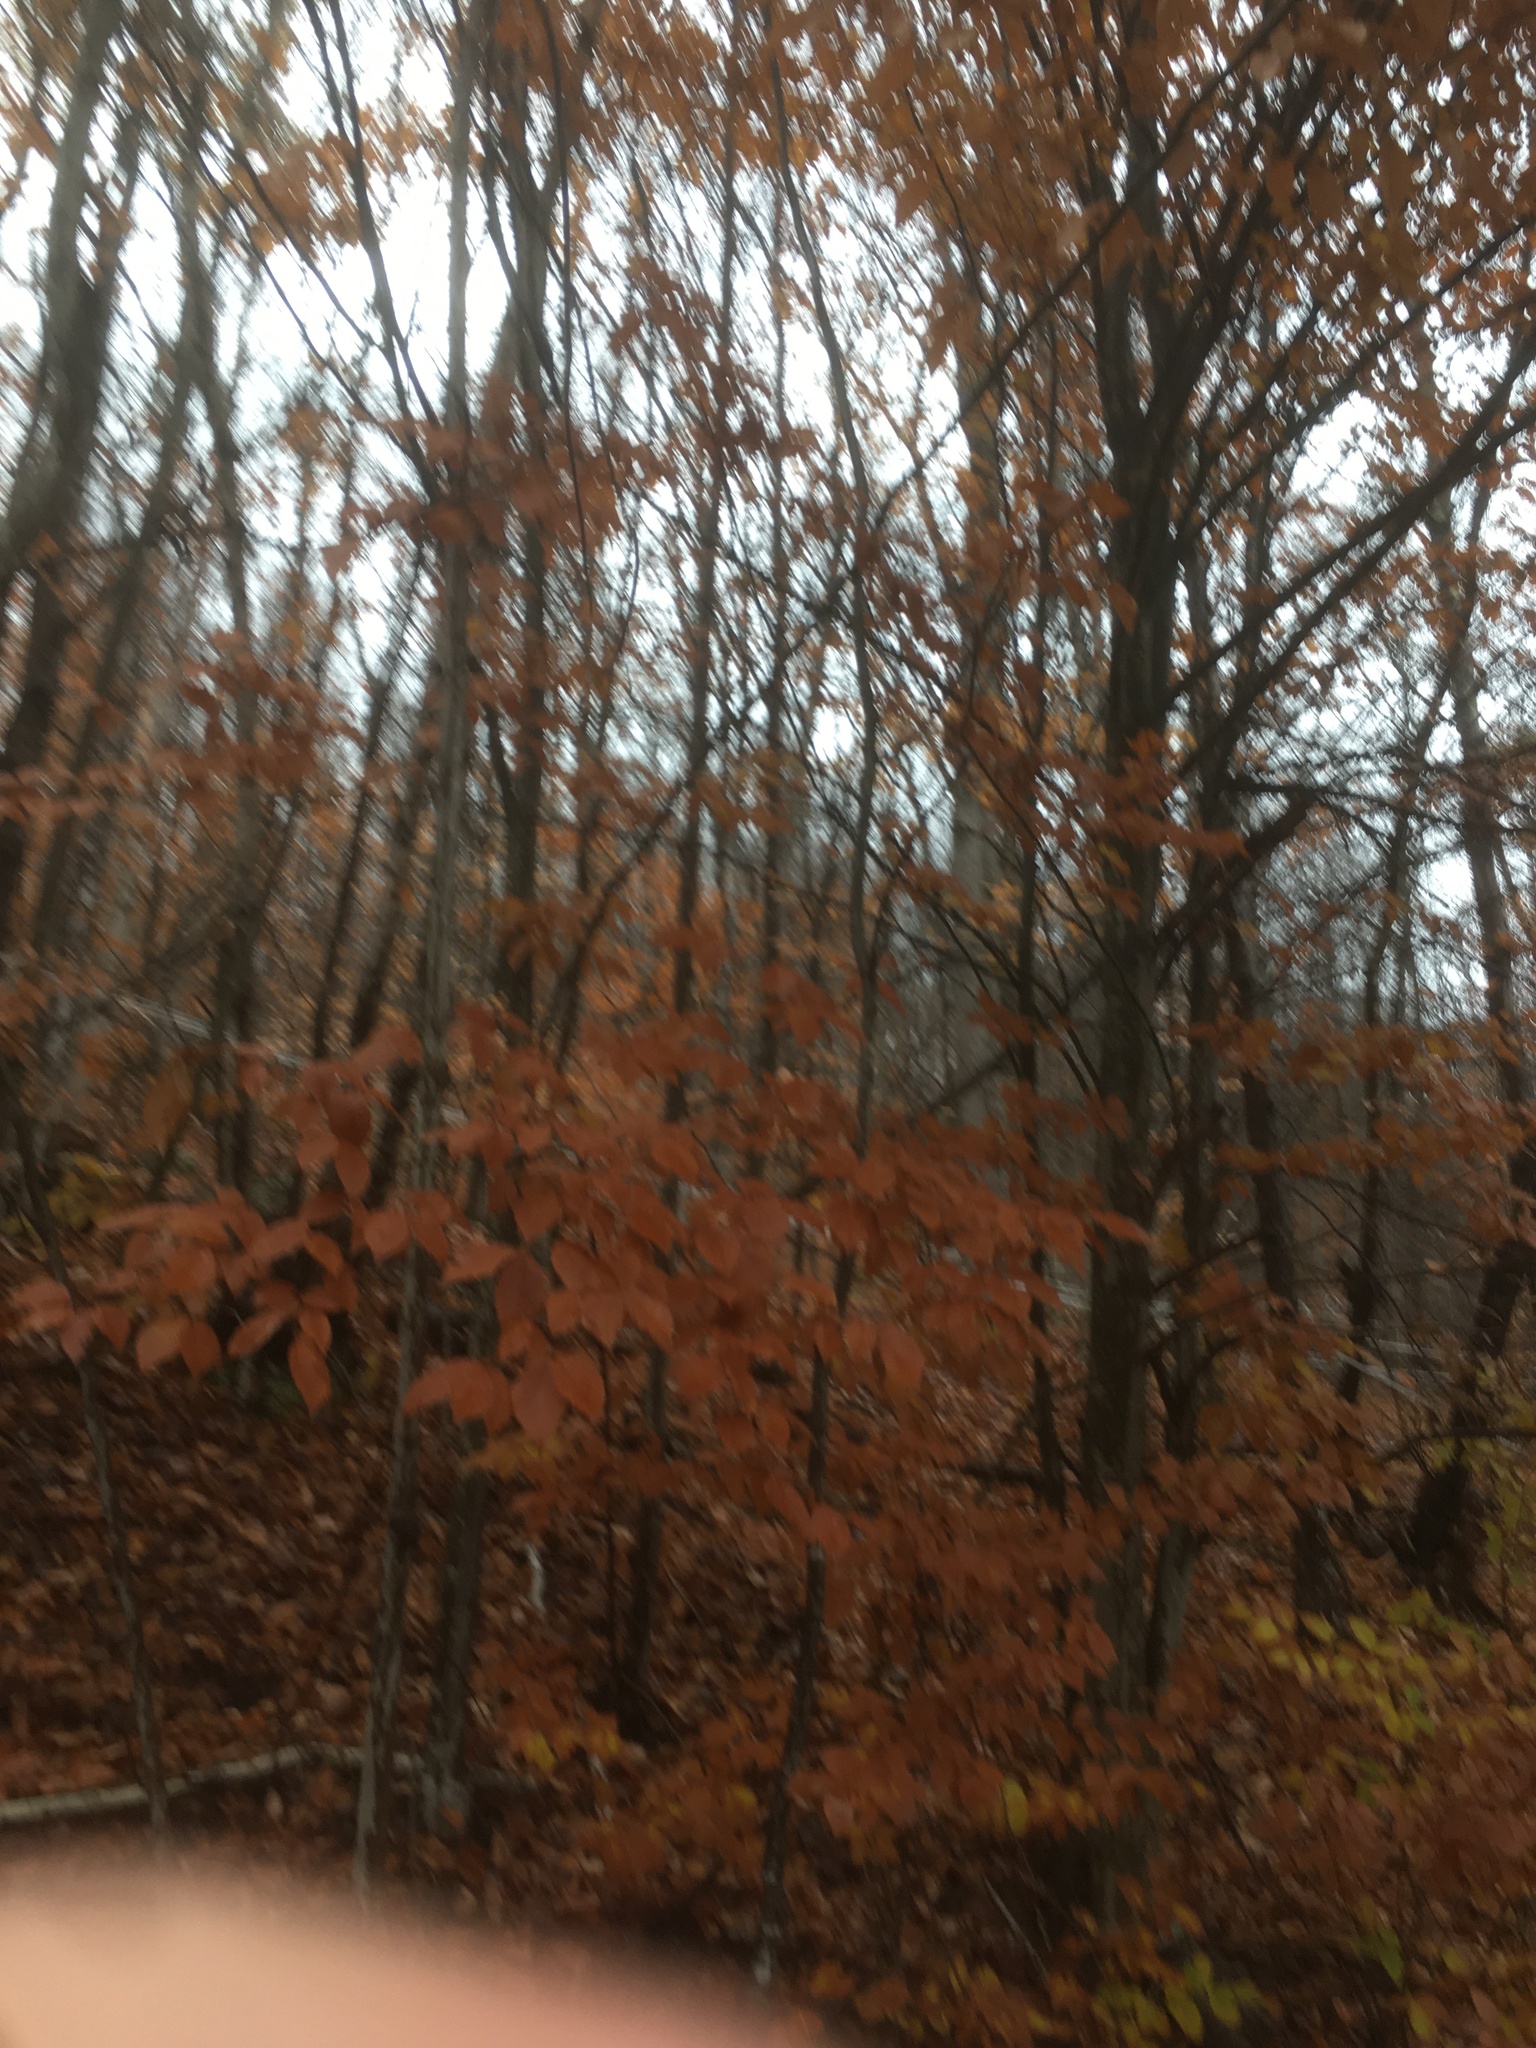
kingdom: Plantae
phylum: Tracheophyta
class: Magnoliopsida
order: Fagales
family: Fagaceae
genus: Fagus
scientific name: Fagus grandifolia
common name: American beech
